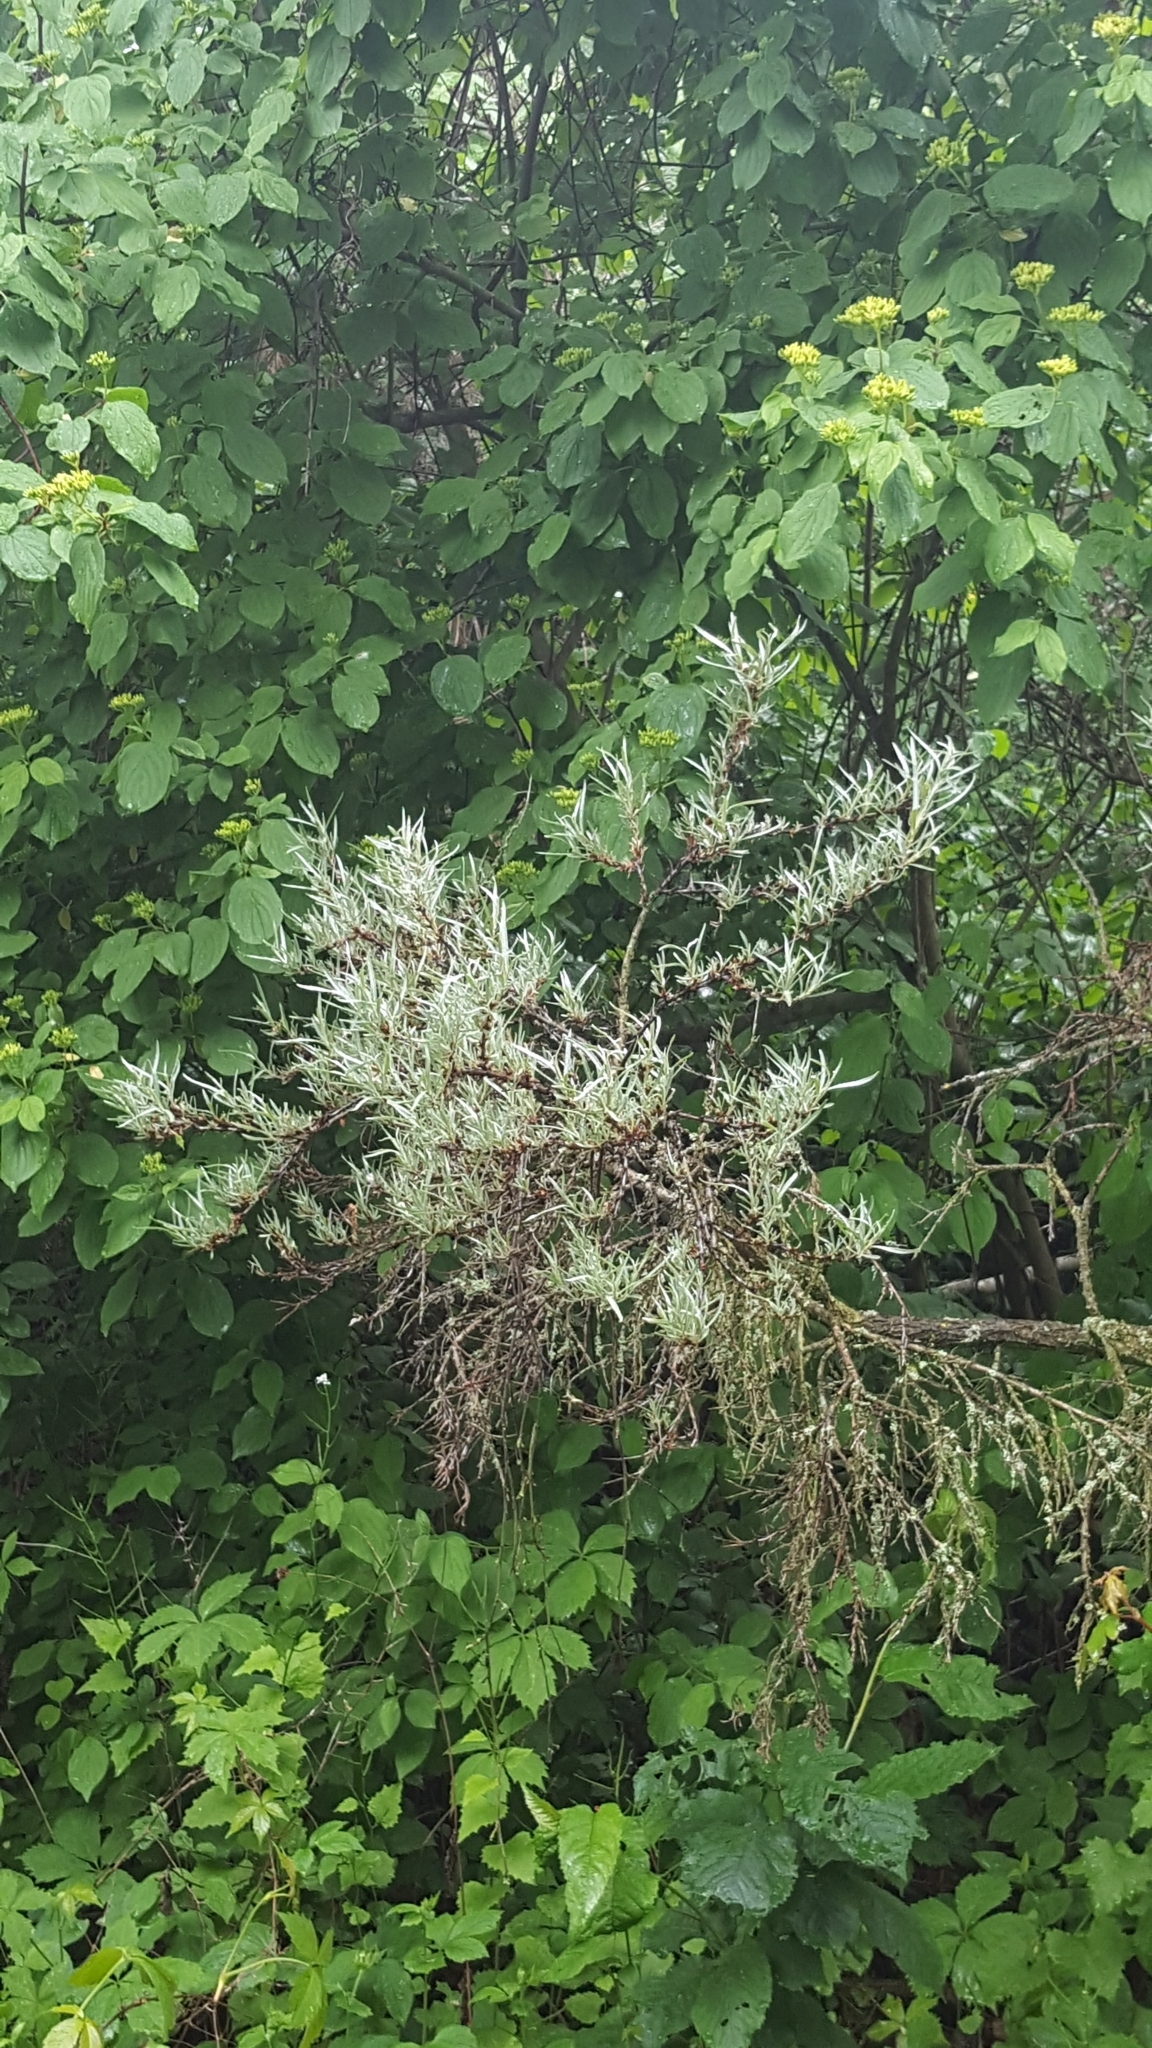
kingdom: Plantae
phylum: Tracheophyta
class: Magnoliopsida
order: Rosales
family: Elaeagnaceae
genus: Hippophae
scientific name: Hippophae rhamnoides
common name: Sea-buckthorn
